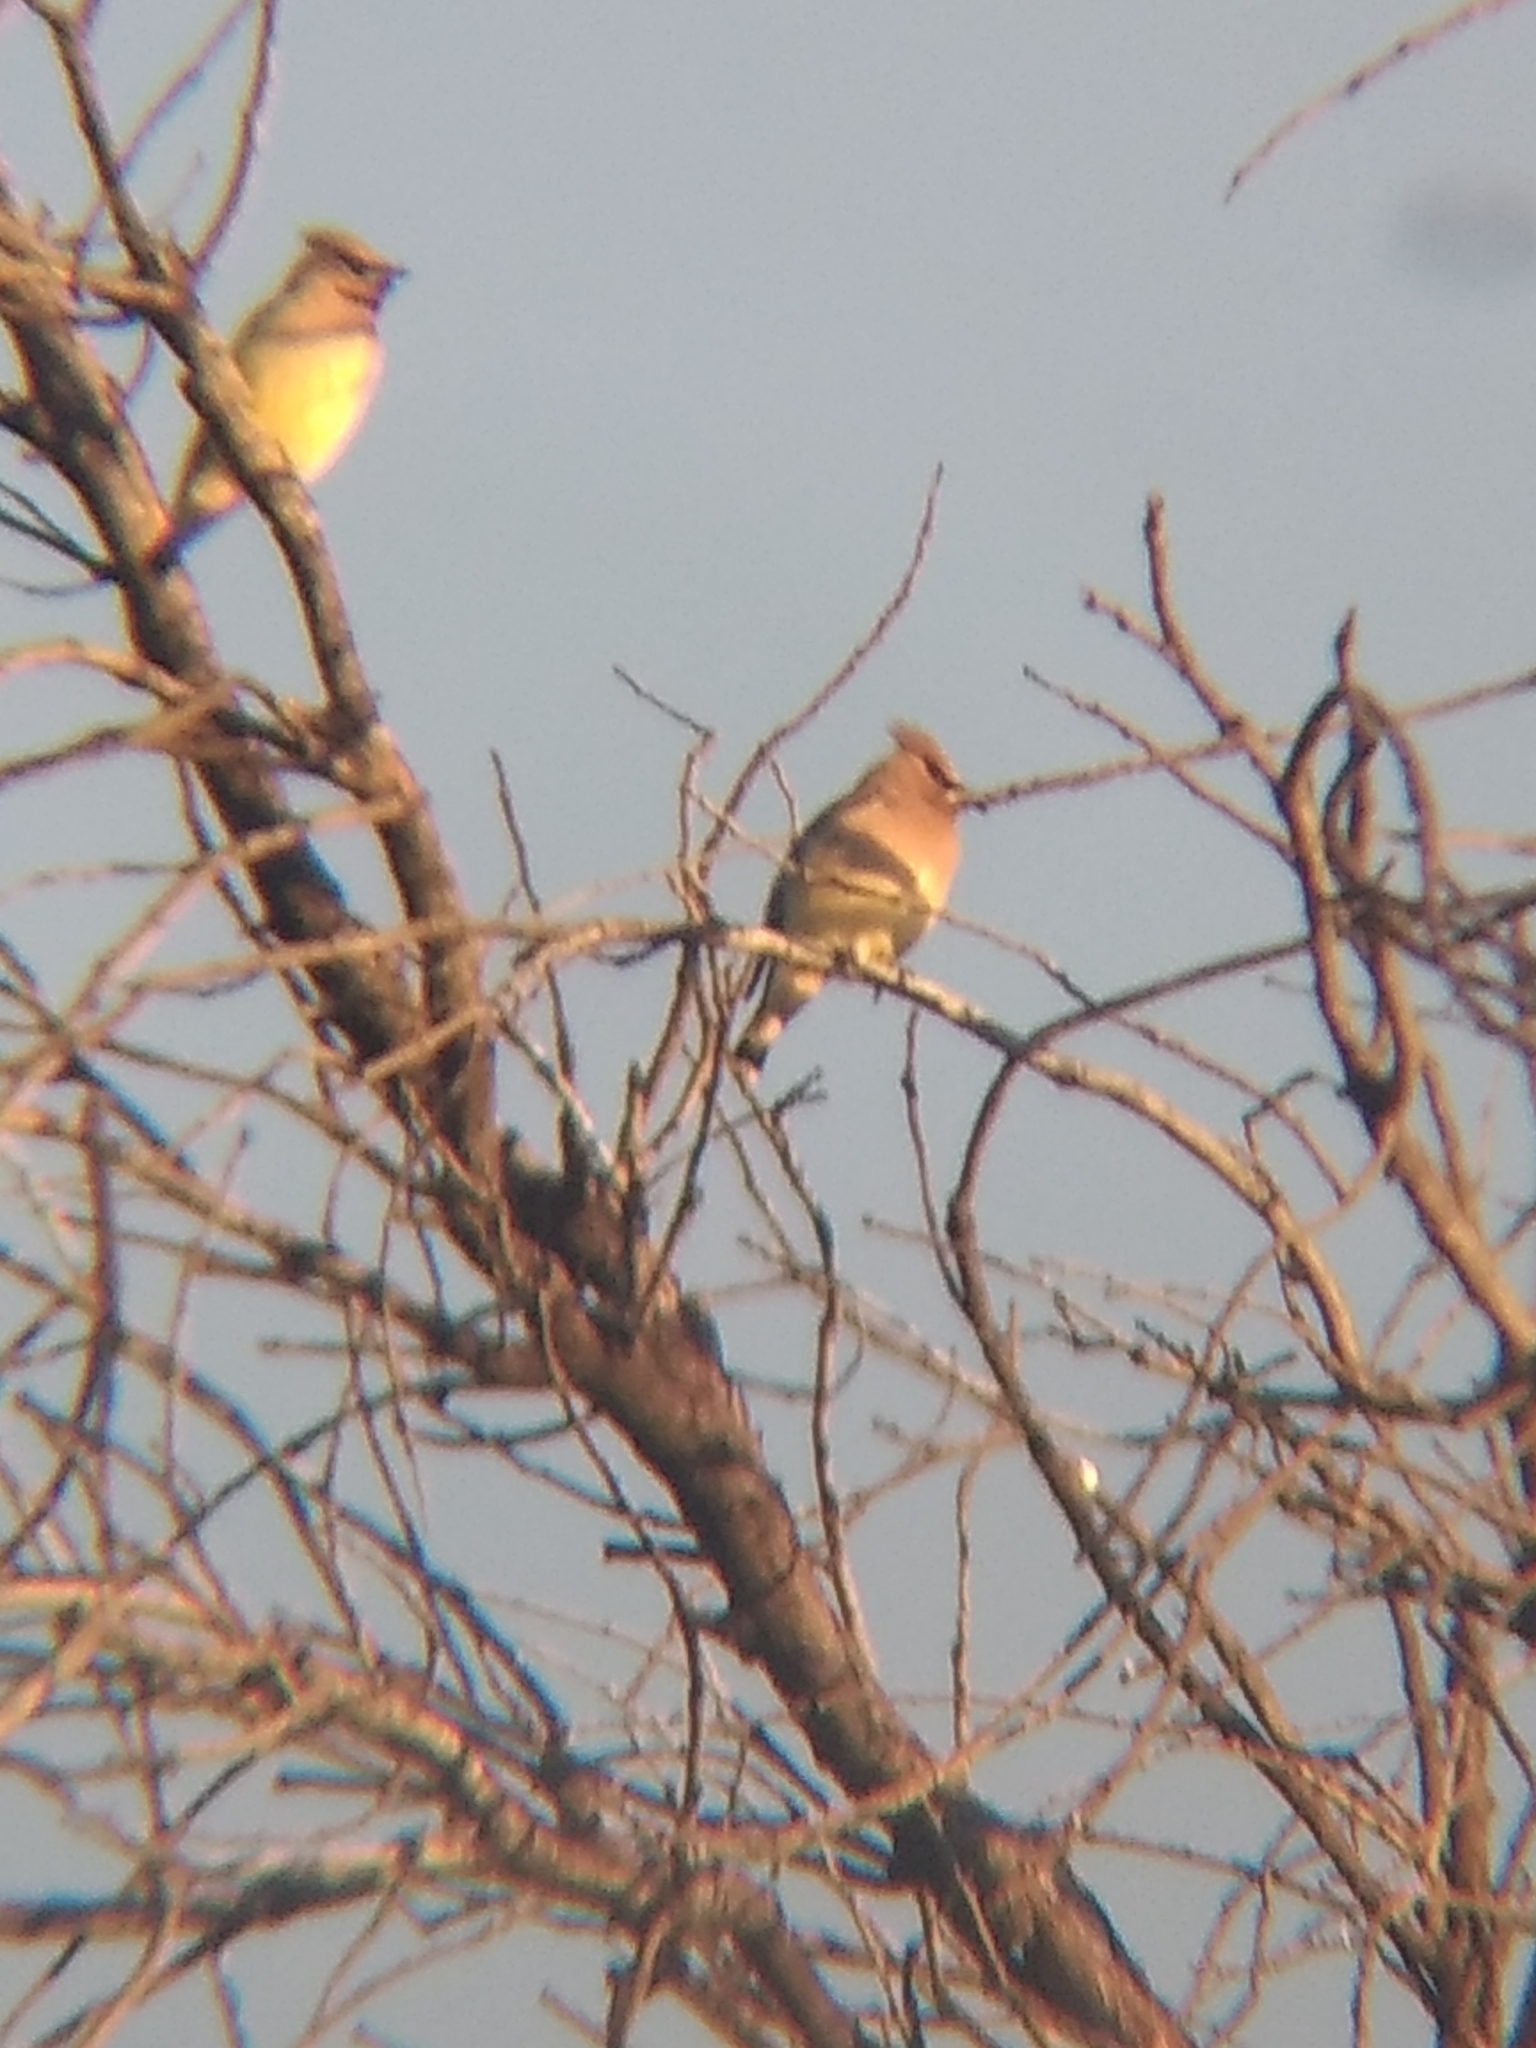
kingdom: Animalia
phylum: Chordata
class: Aves
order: Passeriformes
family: Bombycillidae
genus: Bombycilla
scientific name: Bombycilla cedrorum
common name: Cedar waxwing
